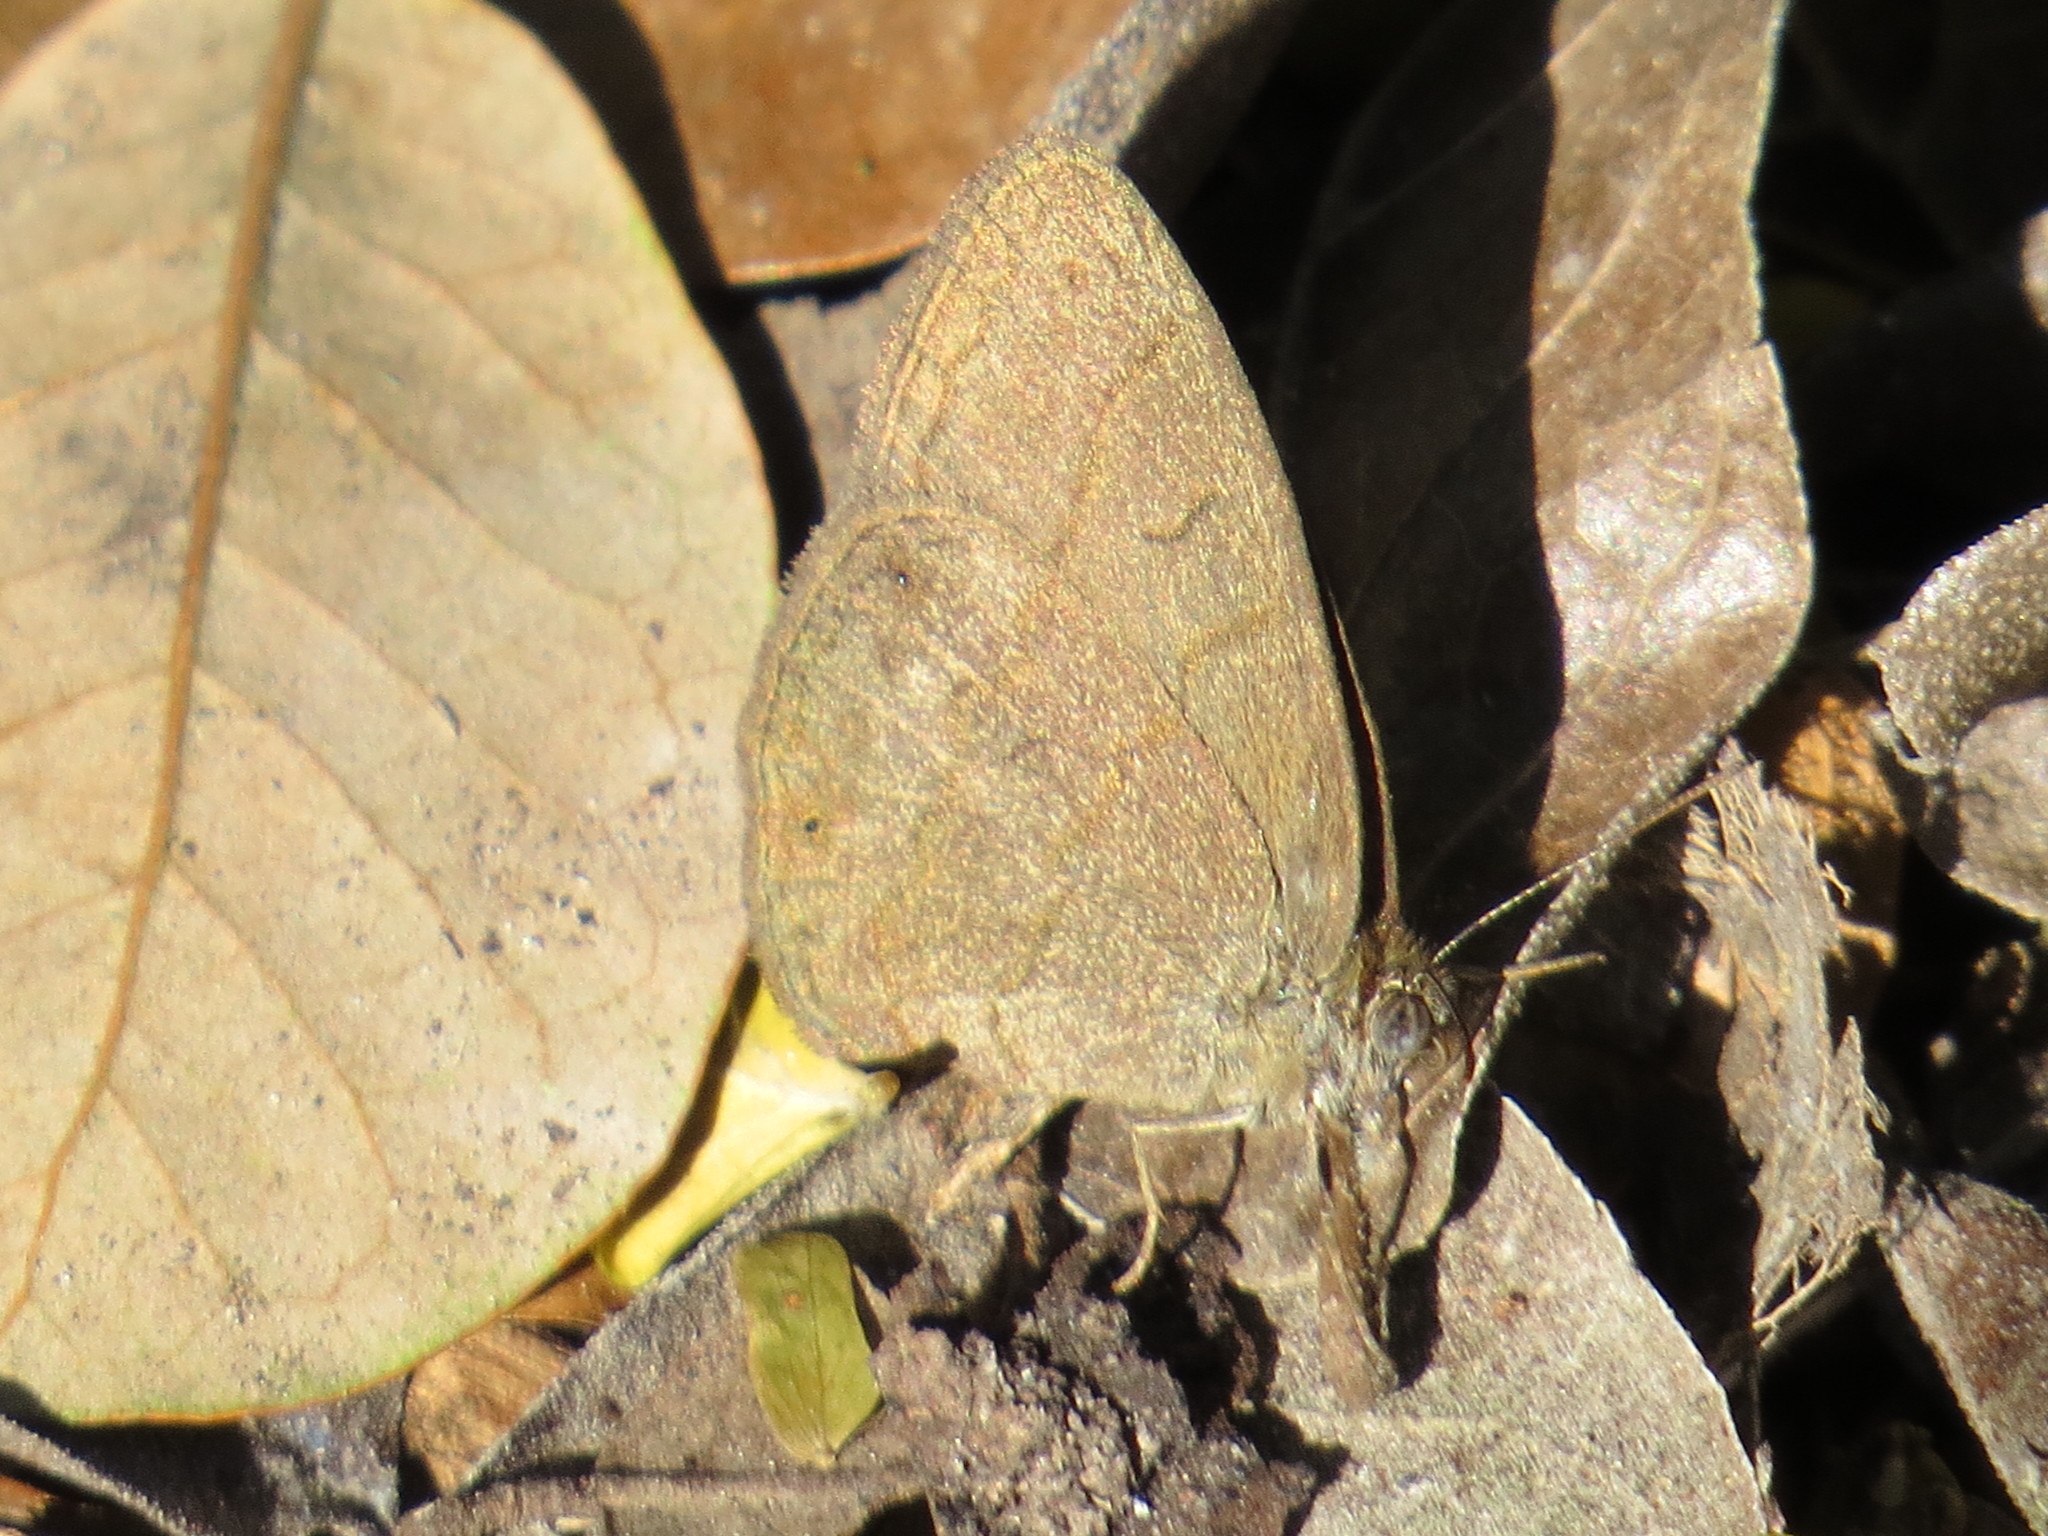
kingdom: Animalia
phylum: Arthropoda
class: Insecta
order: Lepidoptera
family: Nymphalidae
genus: Hermeuptychia
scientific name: Hermeuptychia hermybius
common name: South texas satyr
